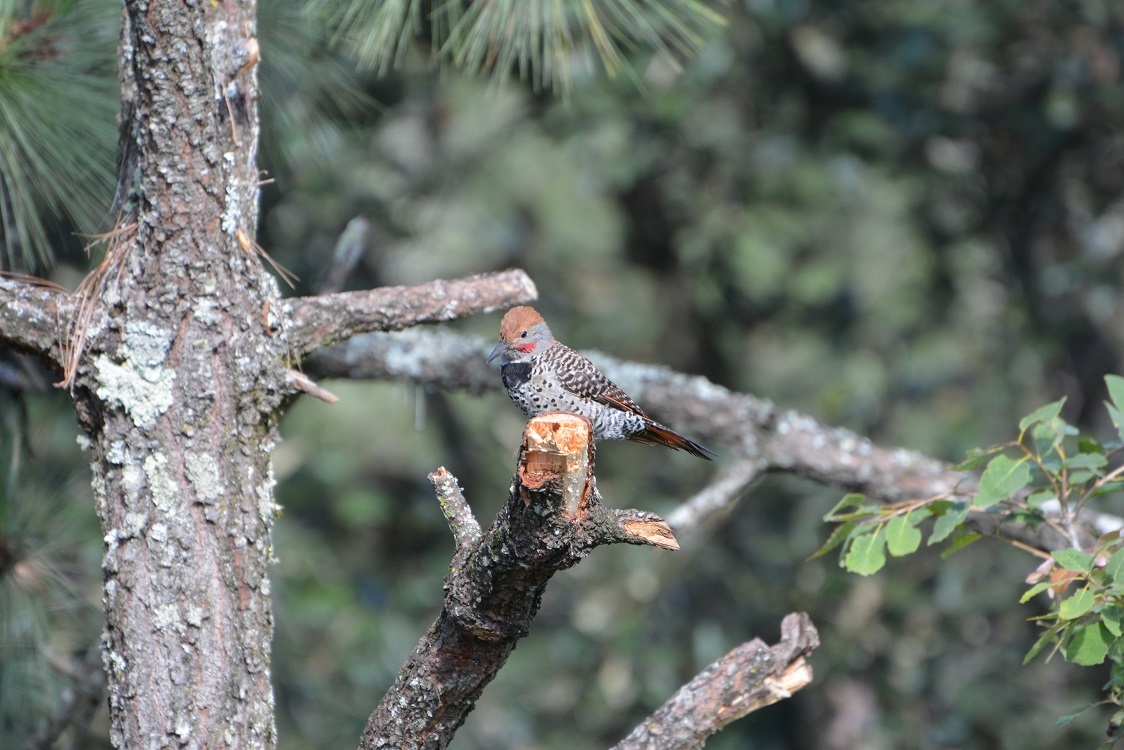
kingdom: Animalia
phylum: Chordata
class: Aves
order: Piciformes
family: Picidae
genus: Colaptes
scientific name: Colaptes auratus
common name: Northern flicker
